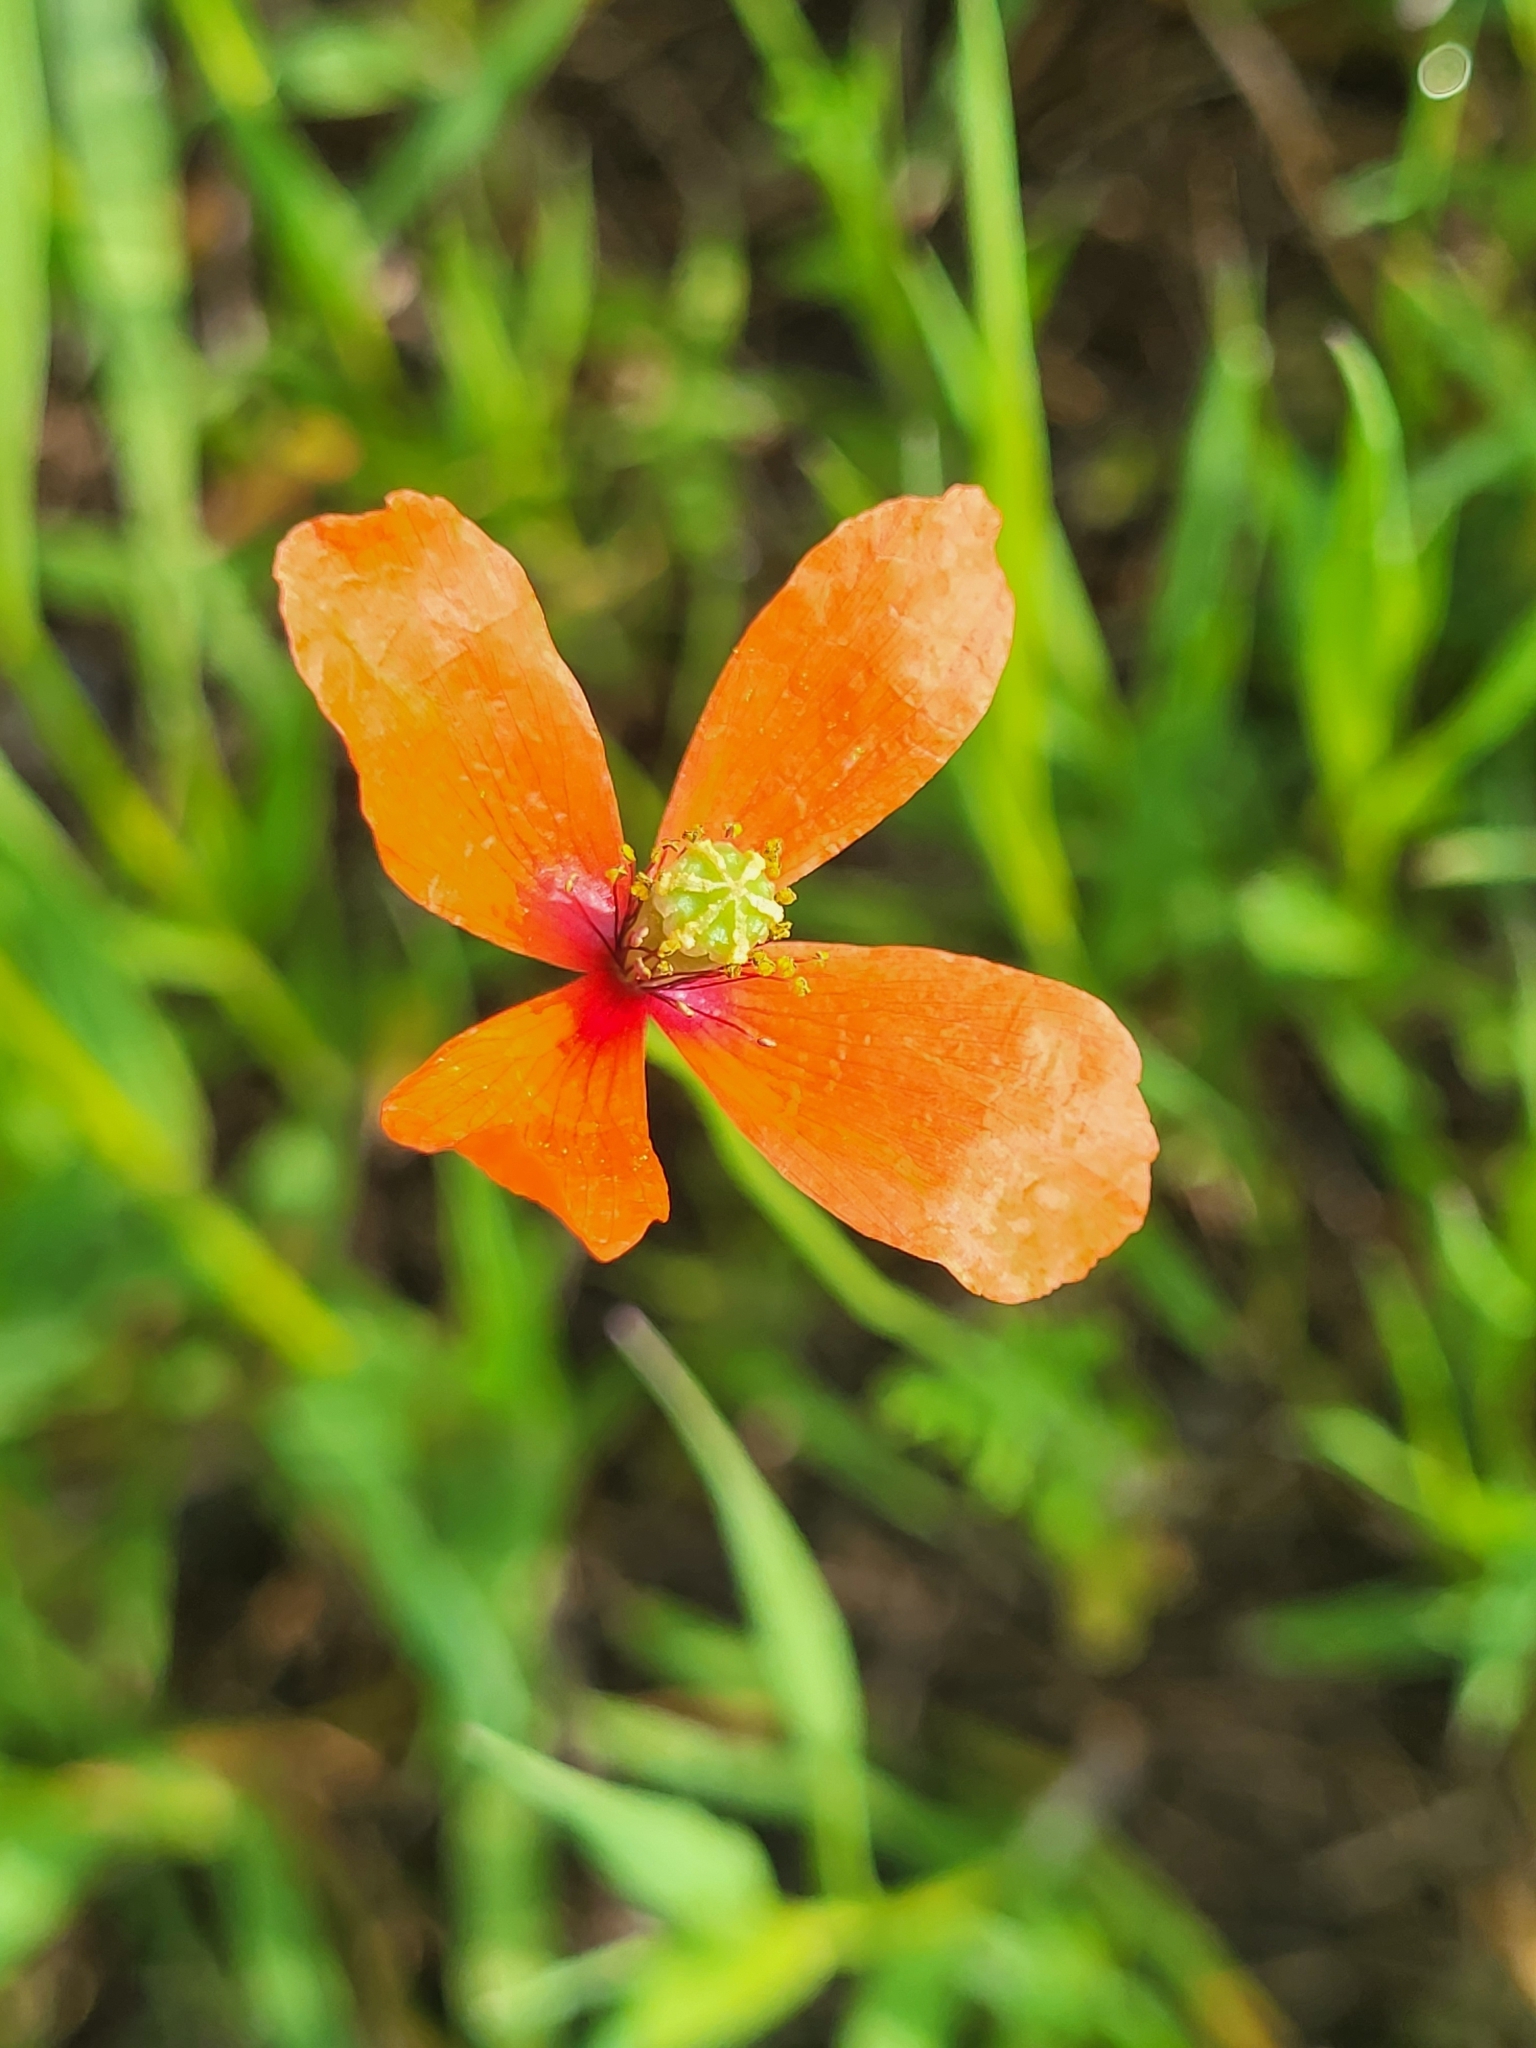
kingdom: Plantae
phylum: Tracheophyta
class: Magnoliopsida
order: Ranunculales
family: Papaveraceae
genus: Roemeria
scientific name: Roemeria argemone
